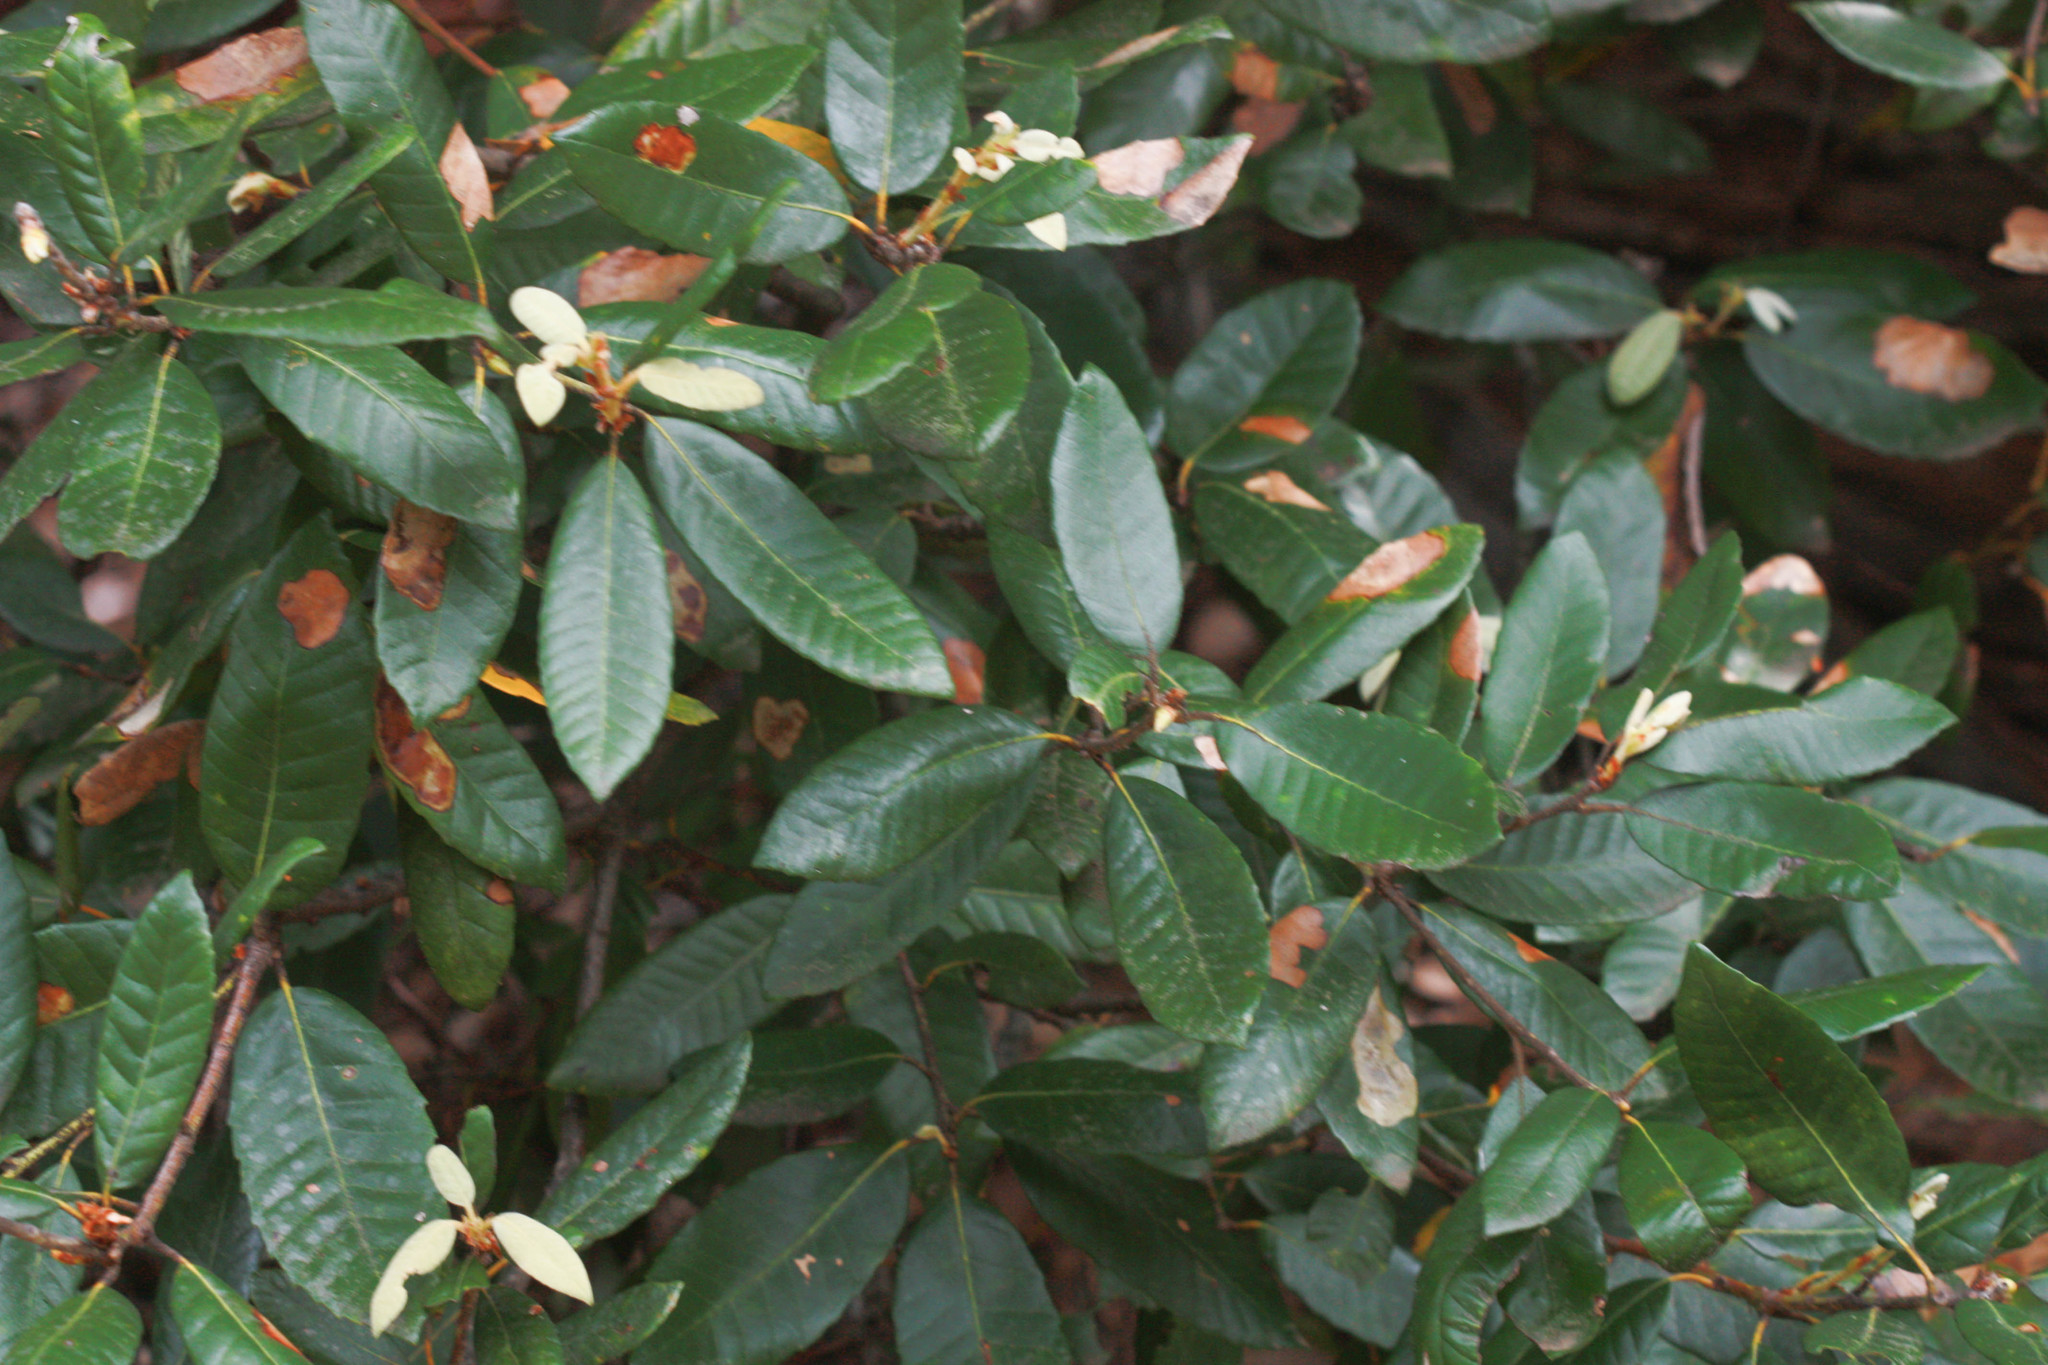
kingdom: Plantae
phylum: Tracheophyta
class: Magnoliopsida
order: Fagales
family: Fagaceae
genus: Notholithocarpus
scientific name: Notholithocarpus densiflorus
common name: Tan bark oak
